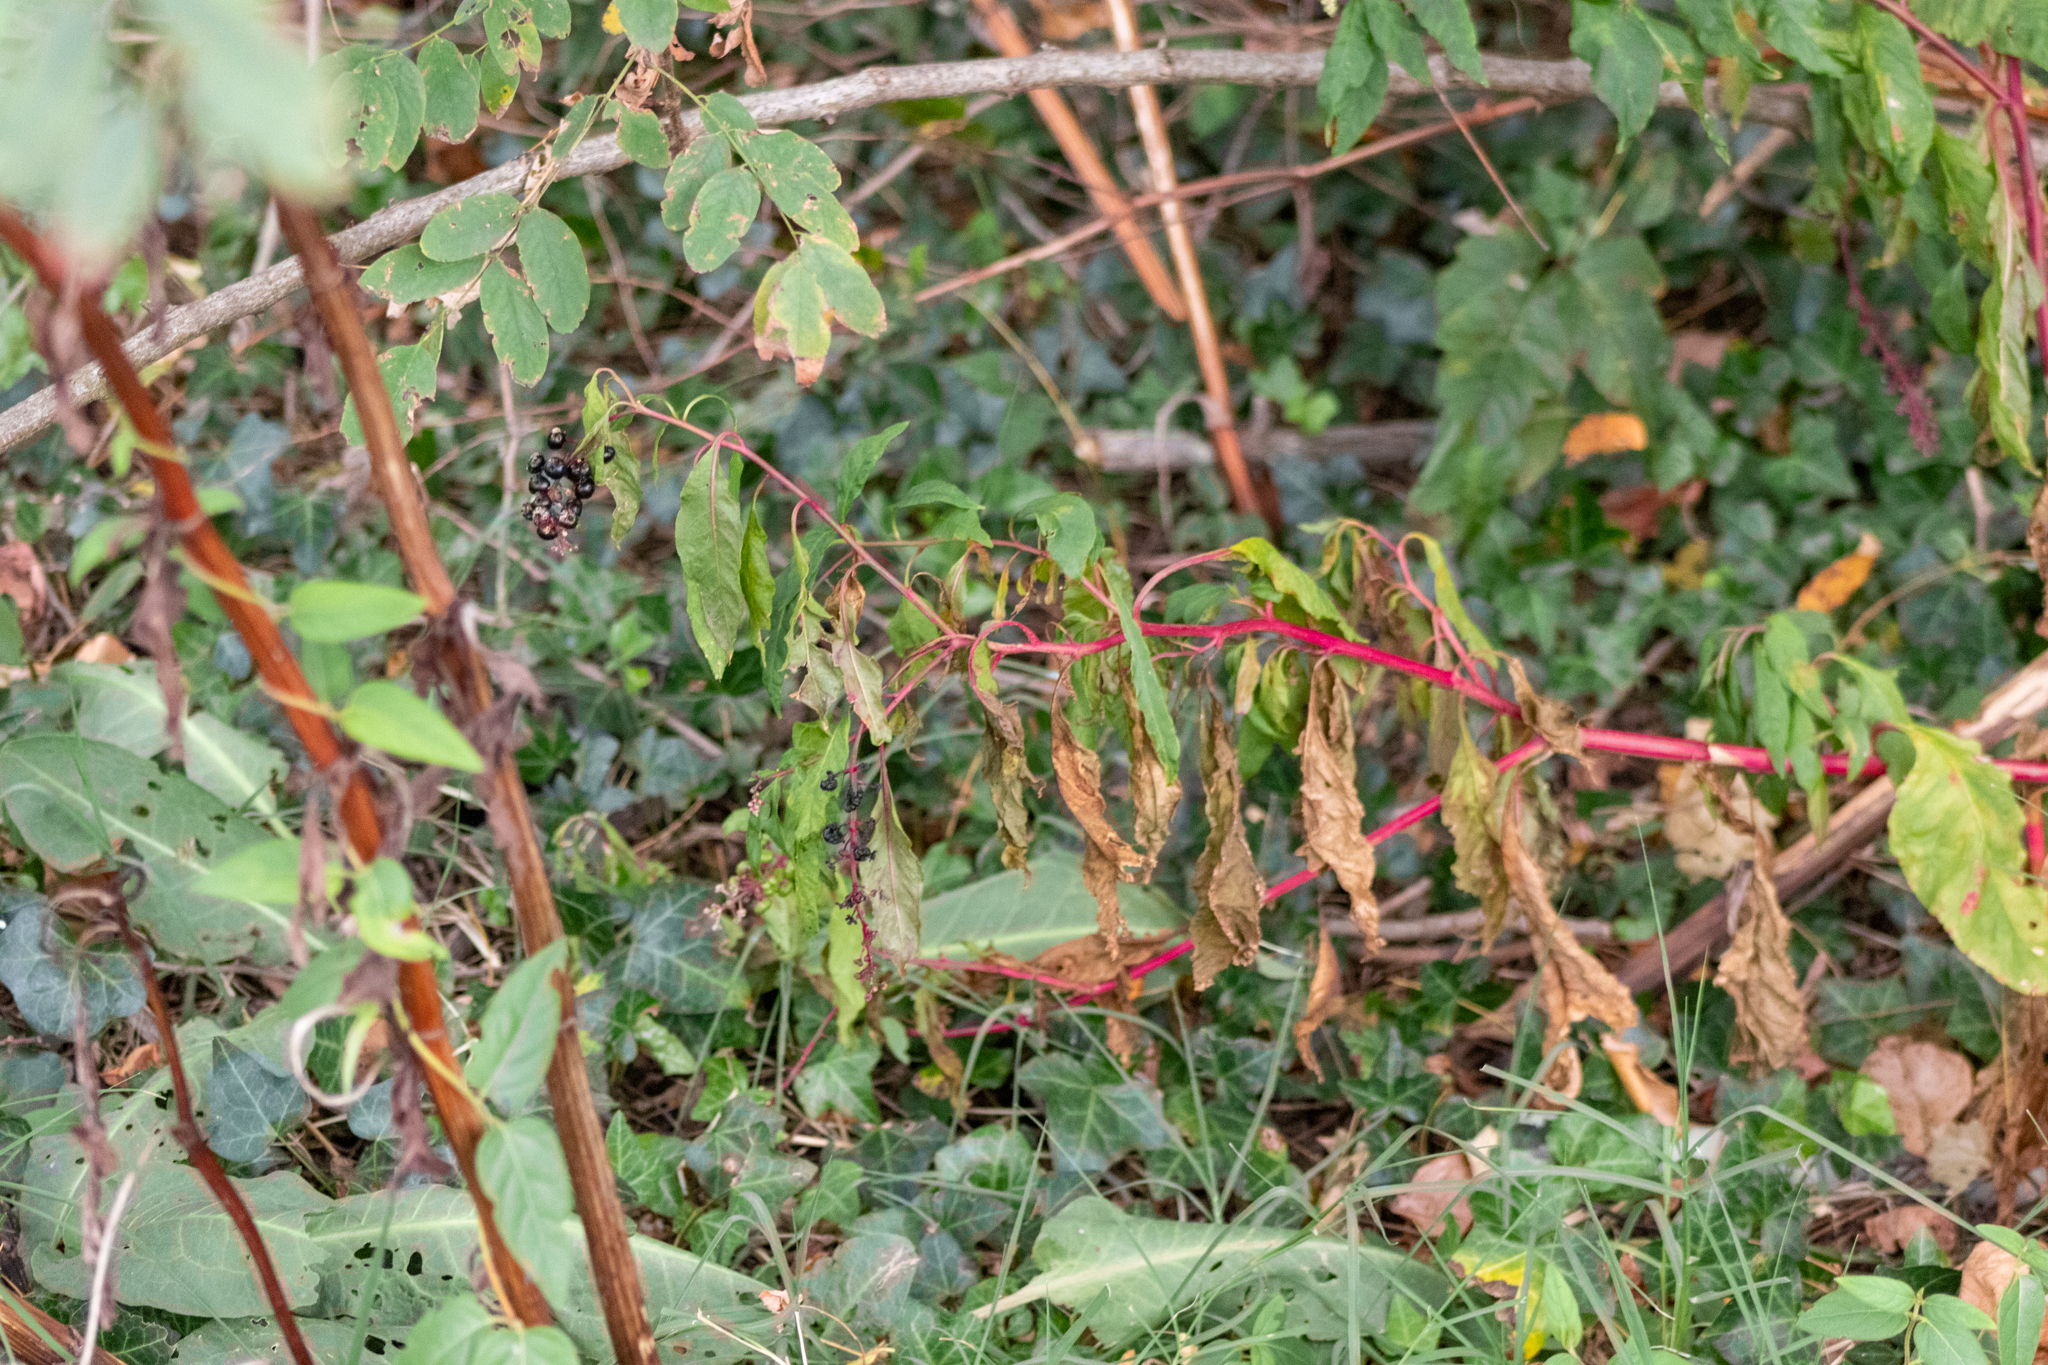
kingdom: Plantae
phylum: Tracheophyta
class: Magnoliopsida
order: Caryophyllales
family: Phytolaccaceae
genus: Phytolacca
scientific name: Phytolacca americana
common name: American pokeweed
